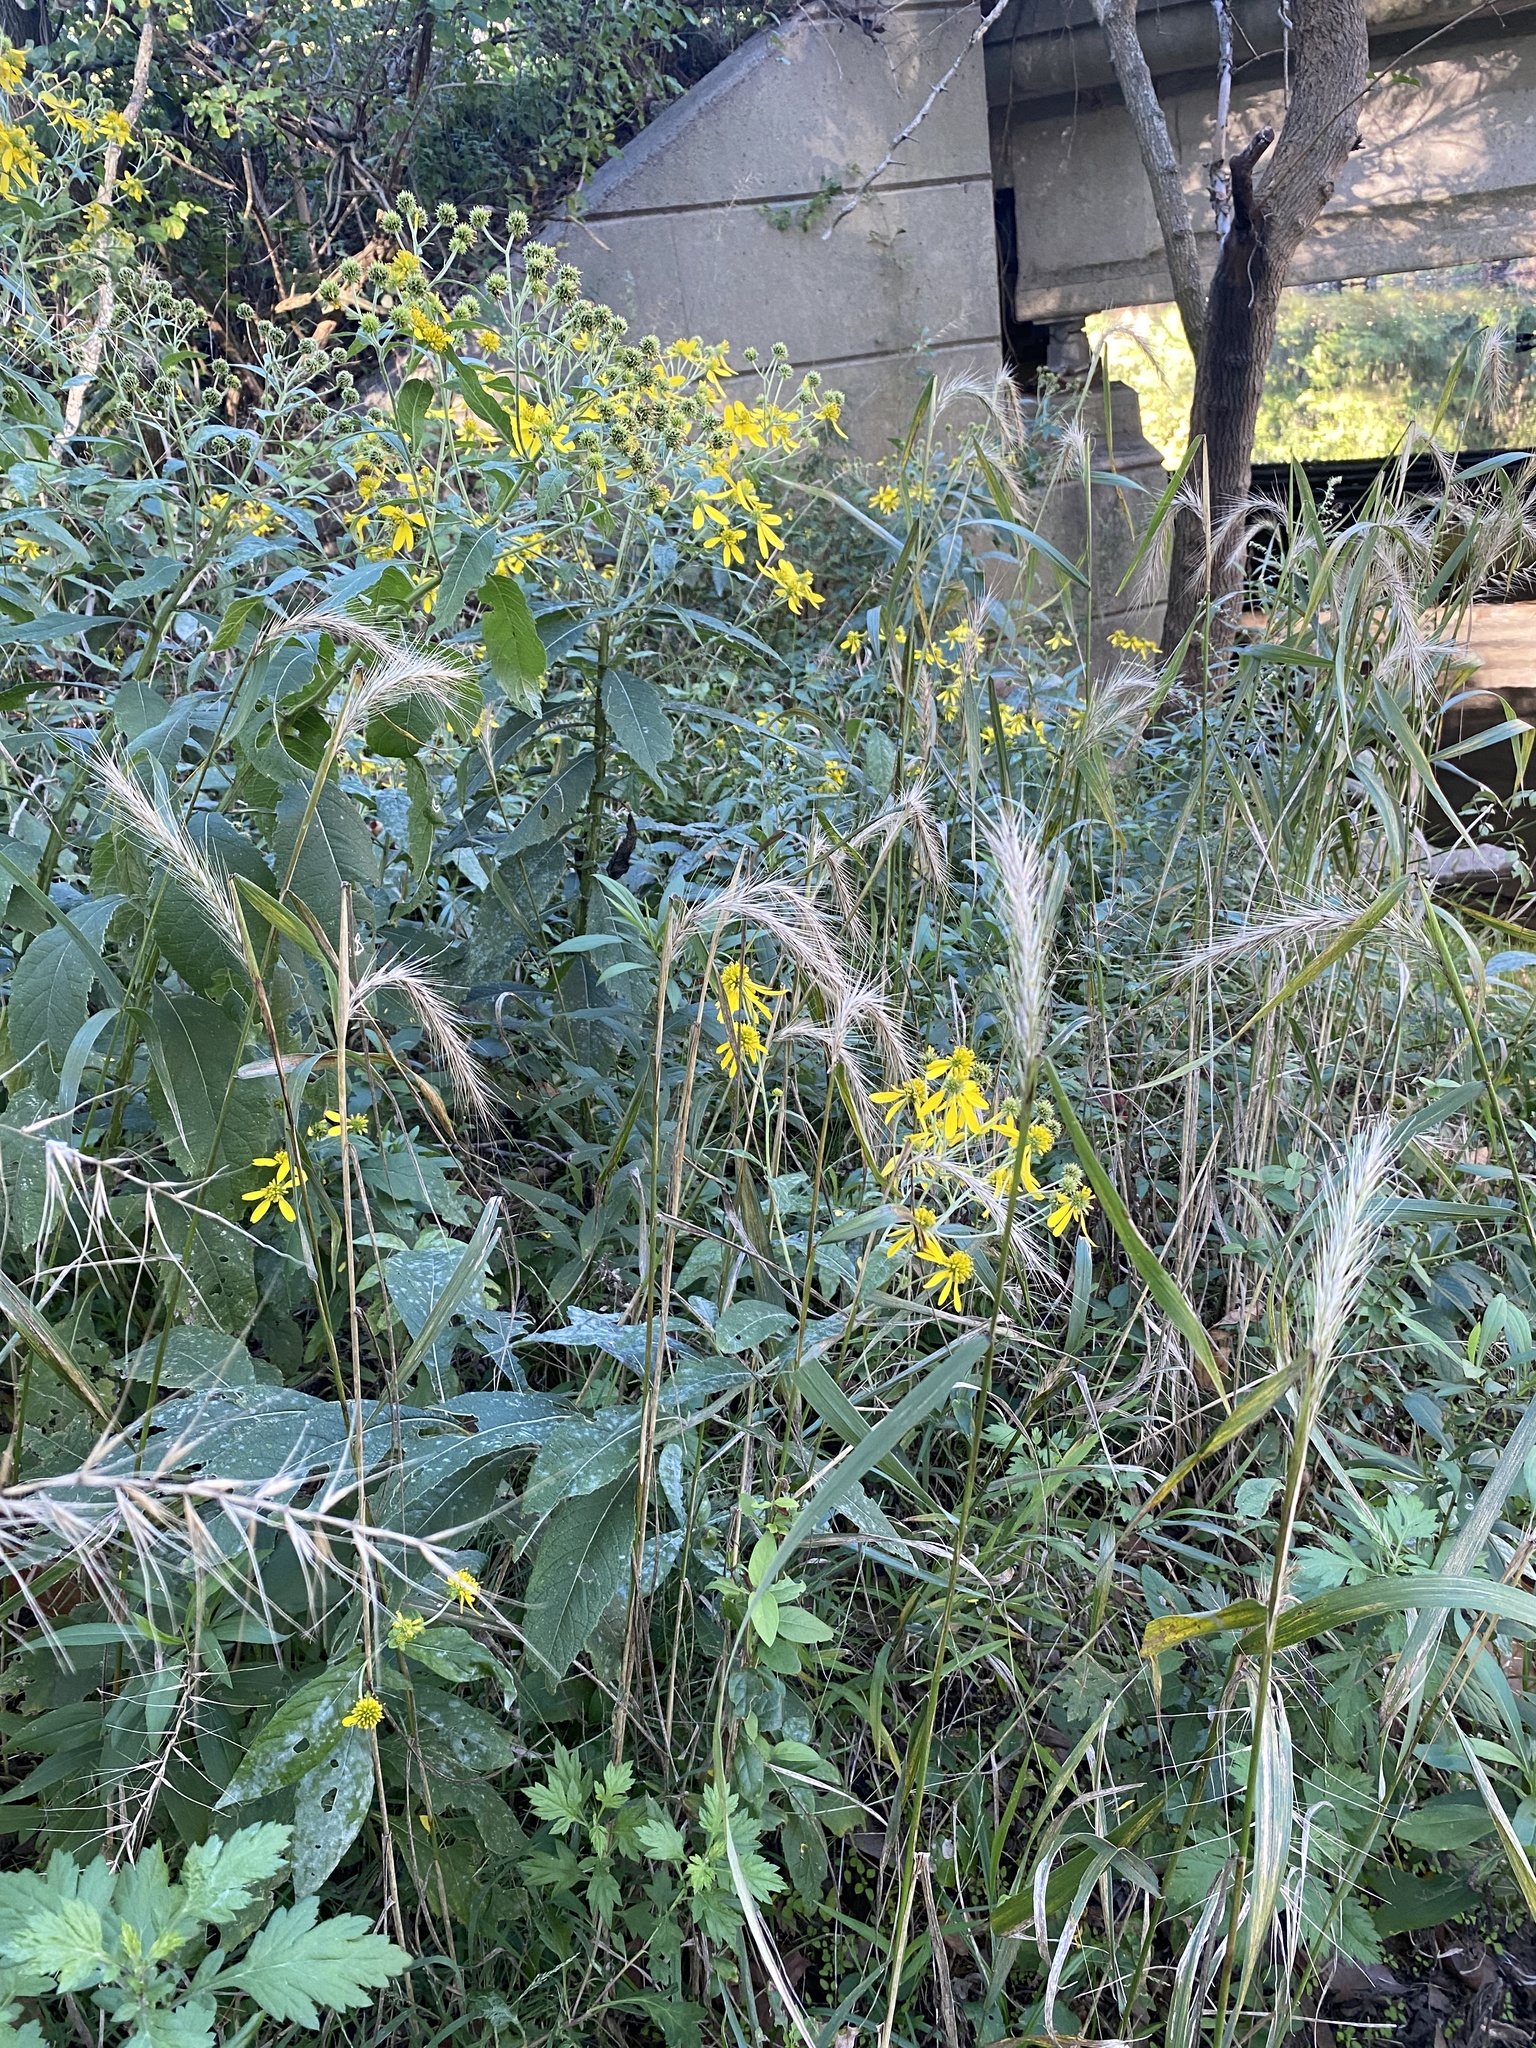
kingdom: Plantae
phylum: Tracheophyta
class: Liliopsida
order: Poales
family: Poaceae
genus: Elymus
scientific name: Elymus riparius
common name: Eastern riverbank wild rye
